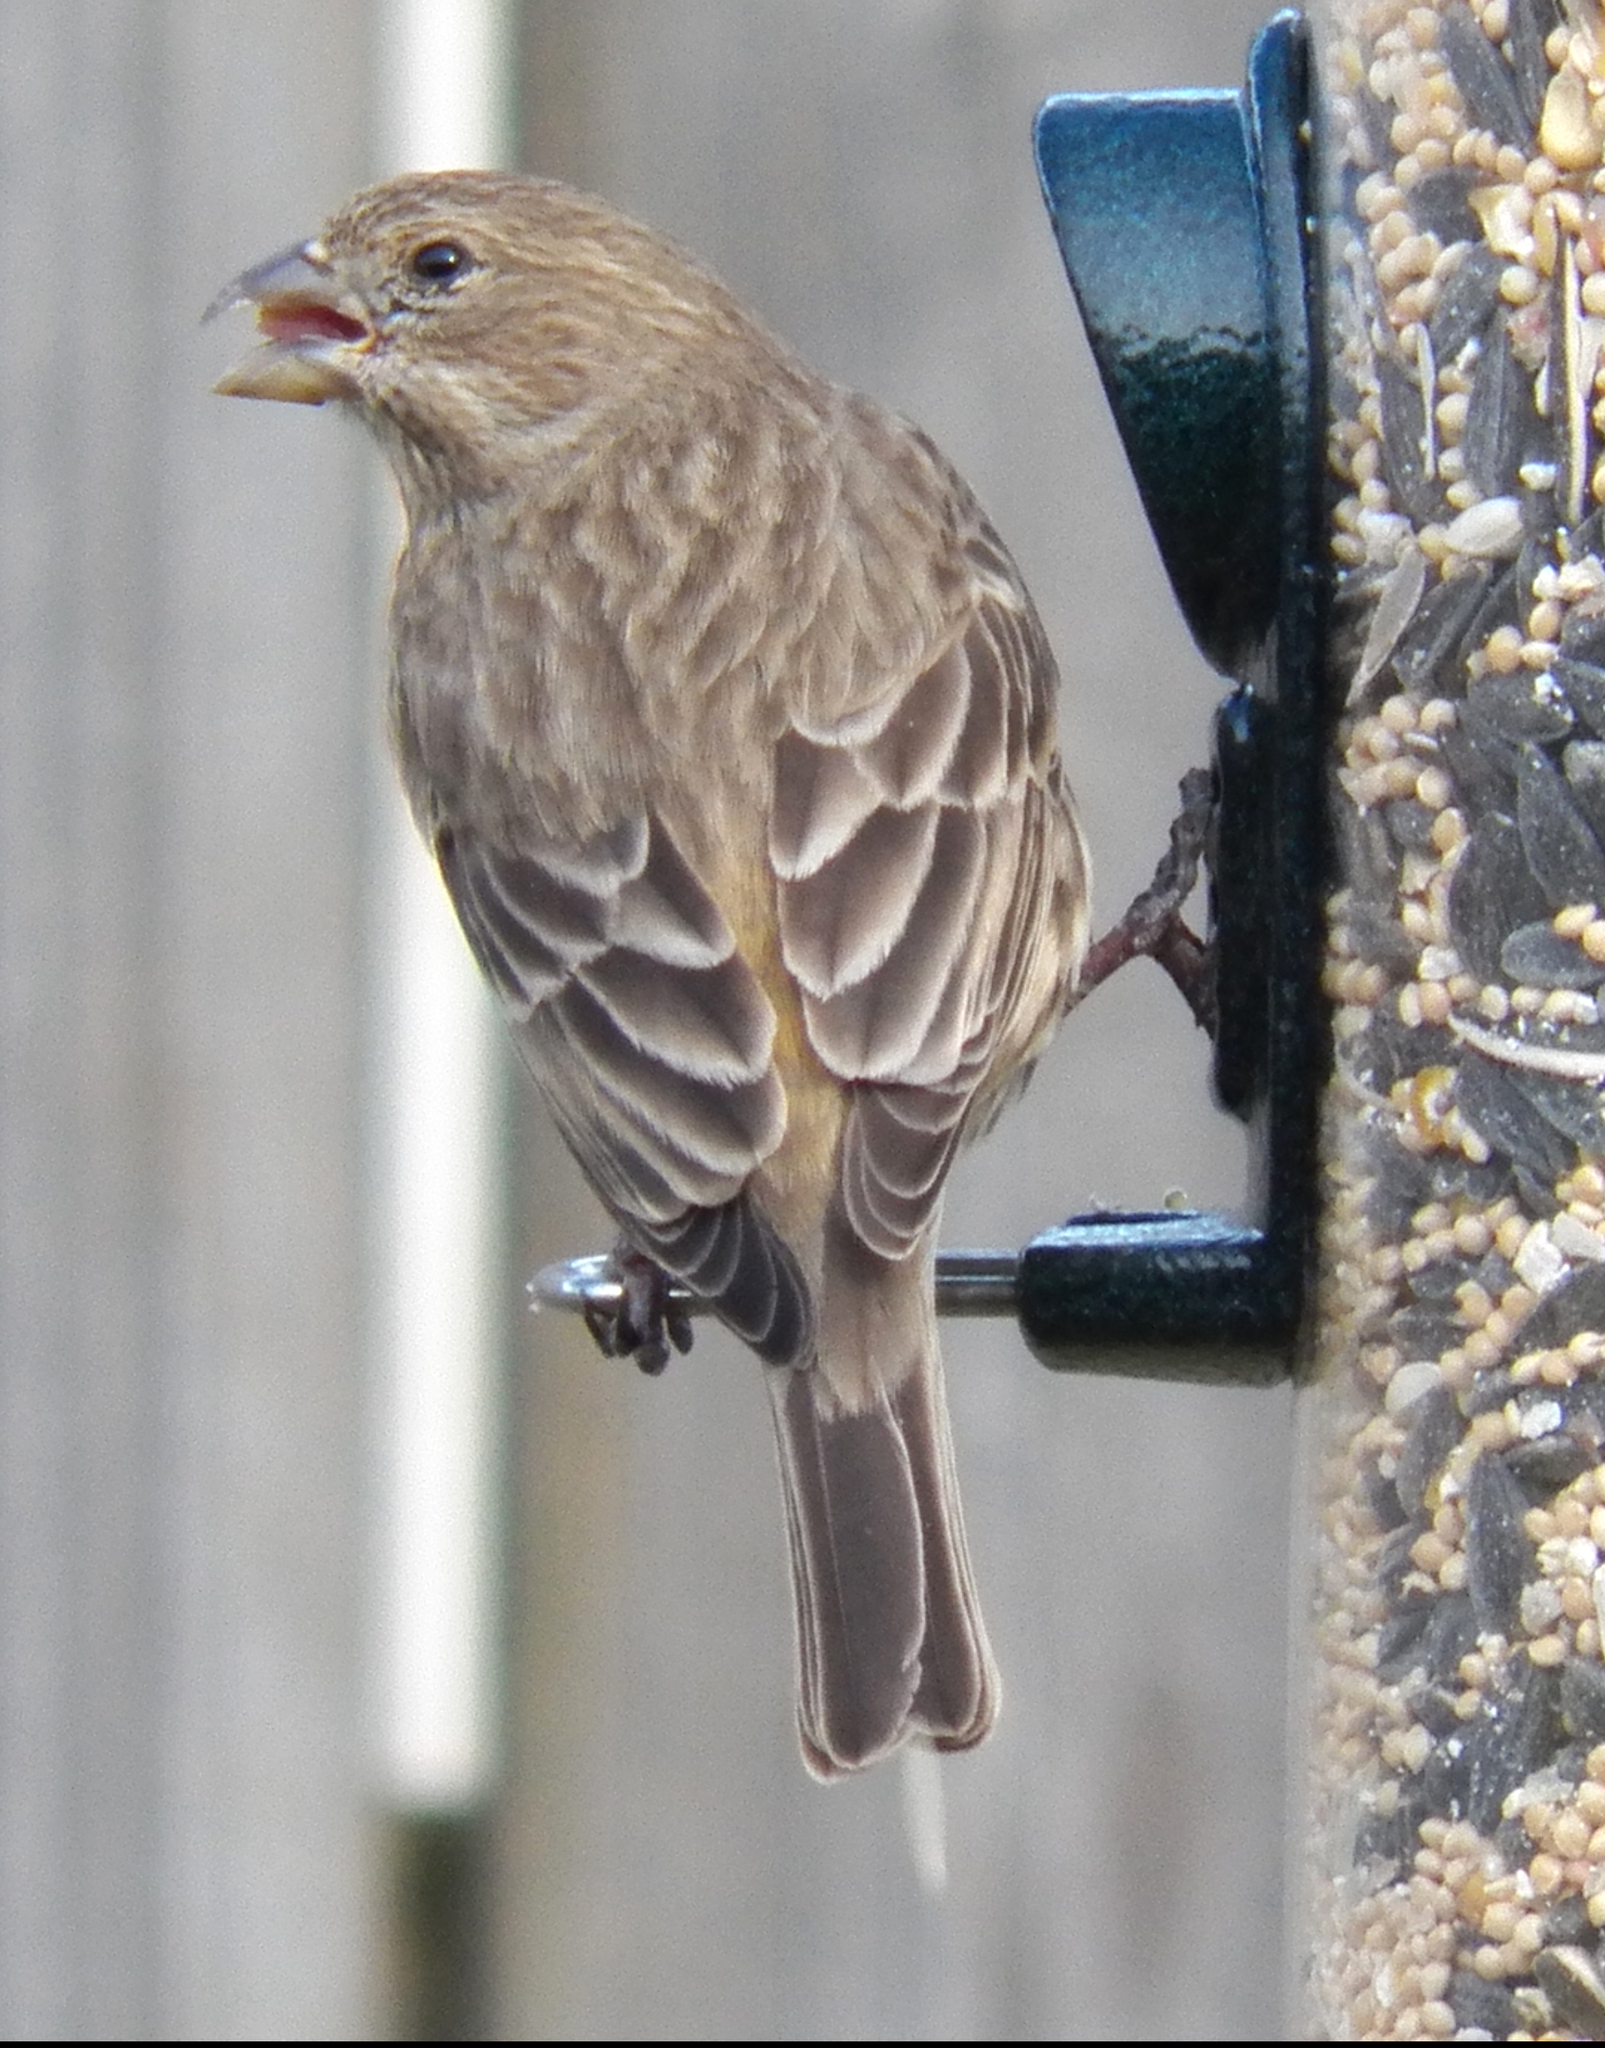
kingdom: Animalia
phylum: Chordata
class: Aves
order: Passeriformes
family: Fringillidae
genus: Haemorhous
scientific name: Haemorhous mexicanus
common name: House finch
